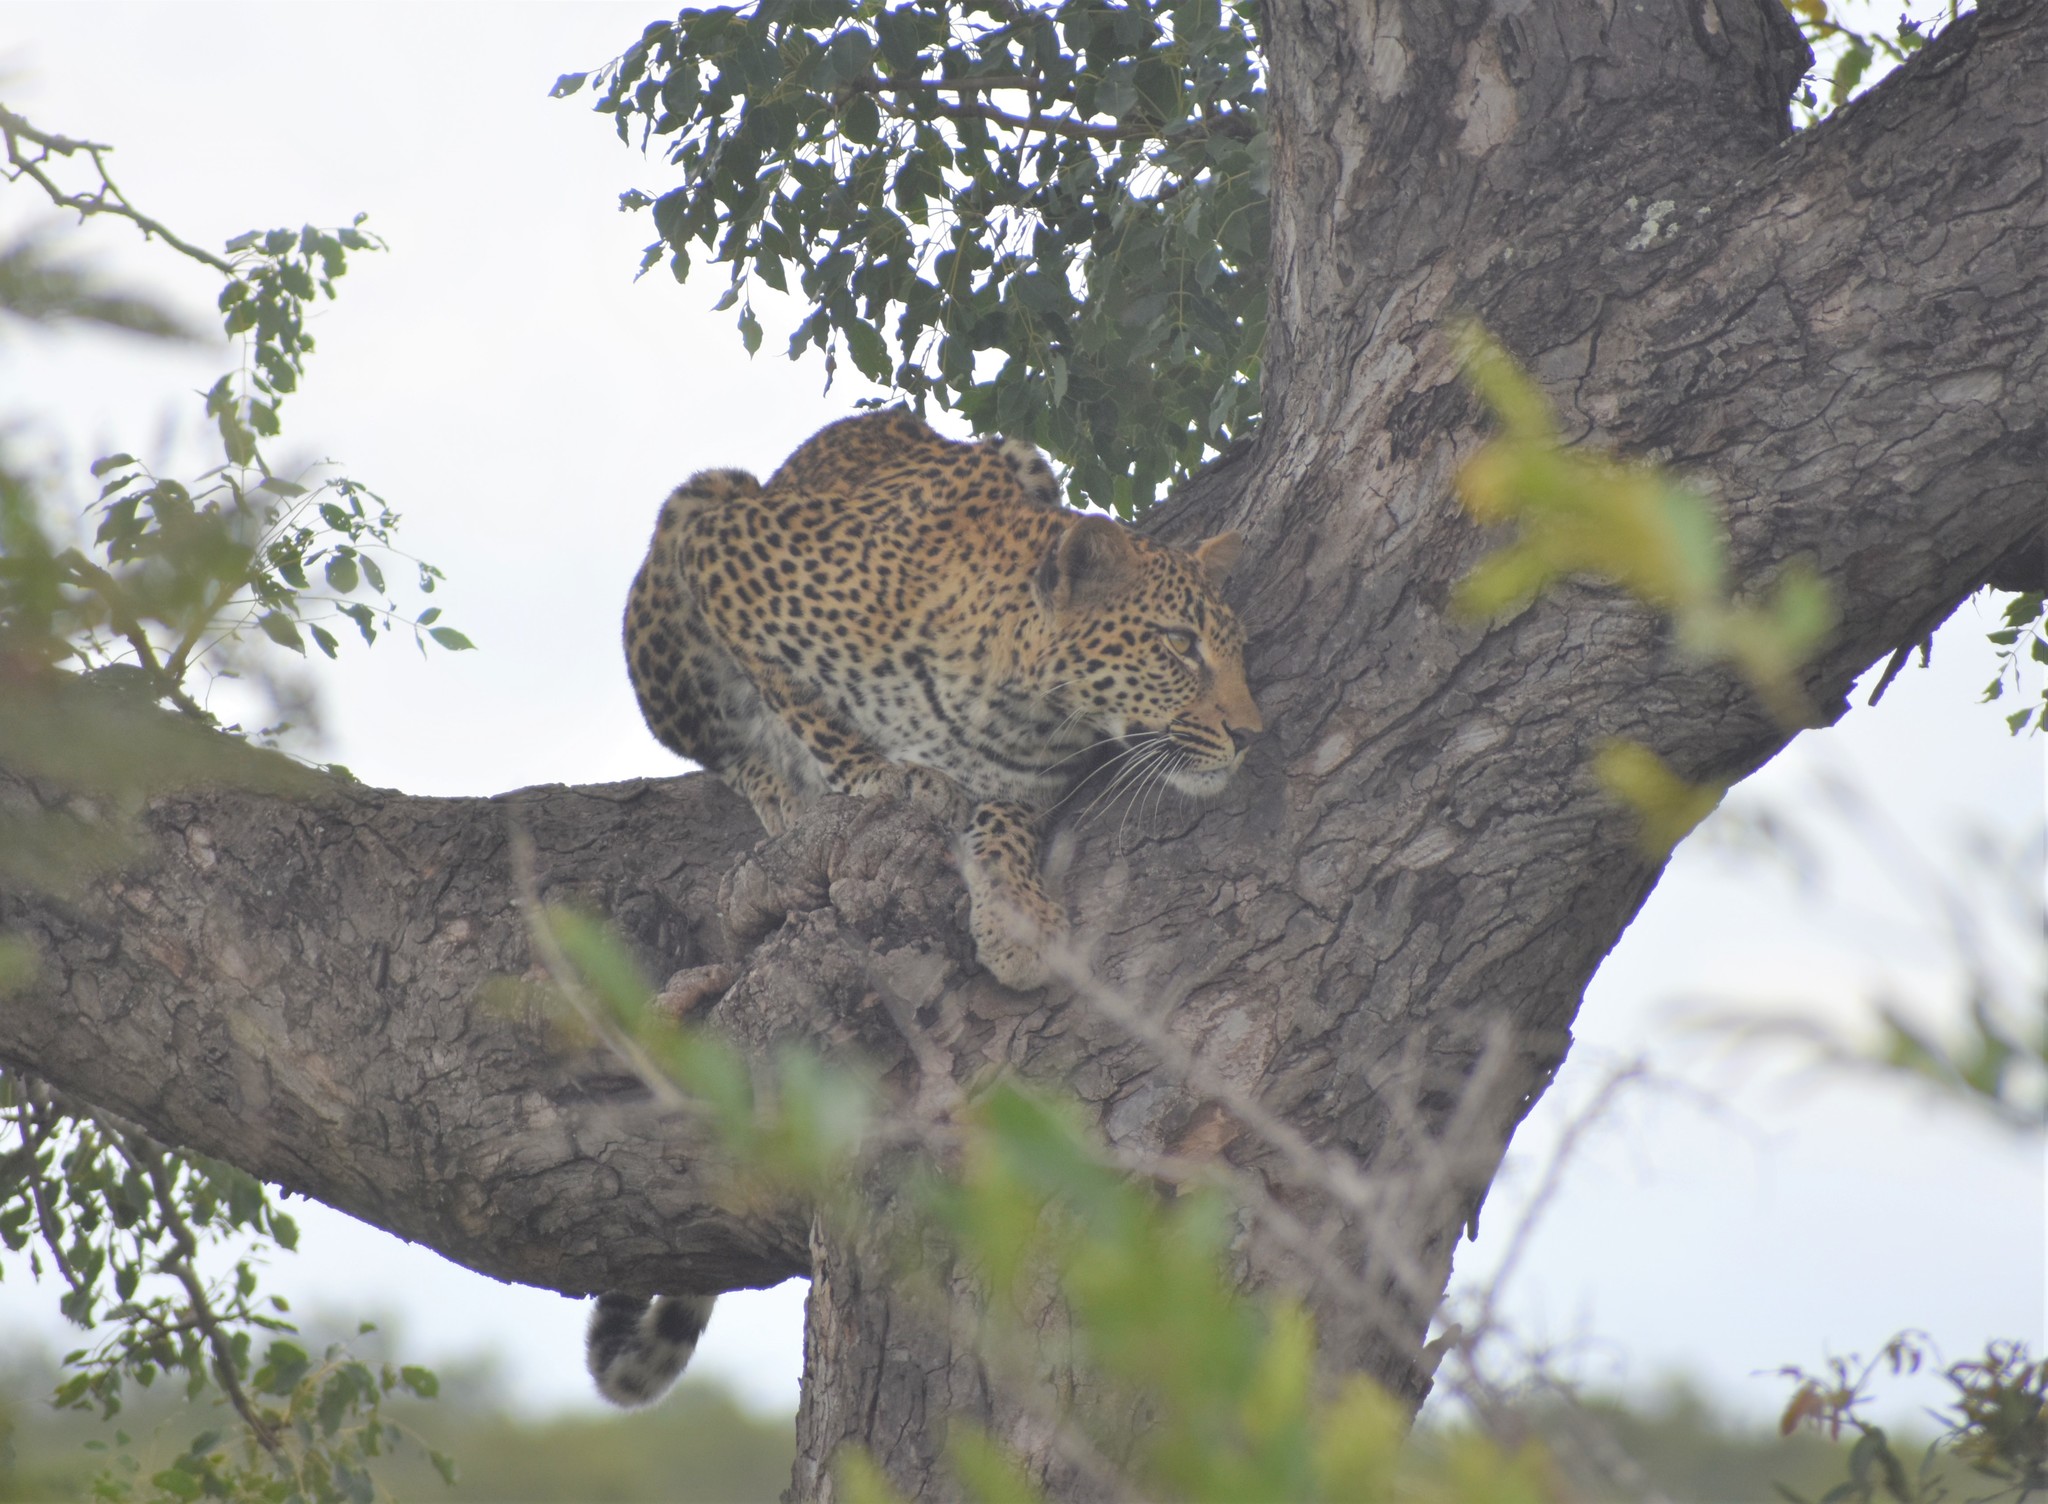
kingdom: Animalia
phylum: Chordata
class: Mammalia
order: Carnivora
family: Felidae
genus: Panthera
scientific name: Panthera pardus
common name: Leopard
